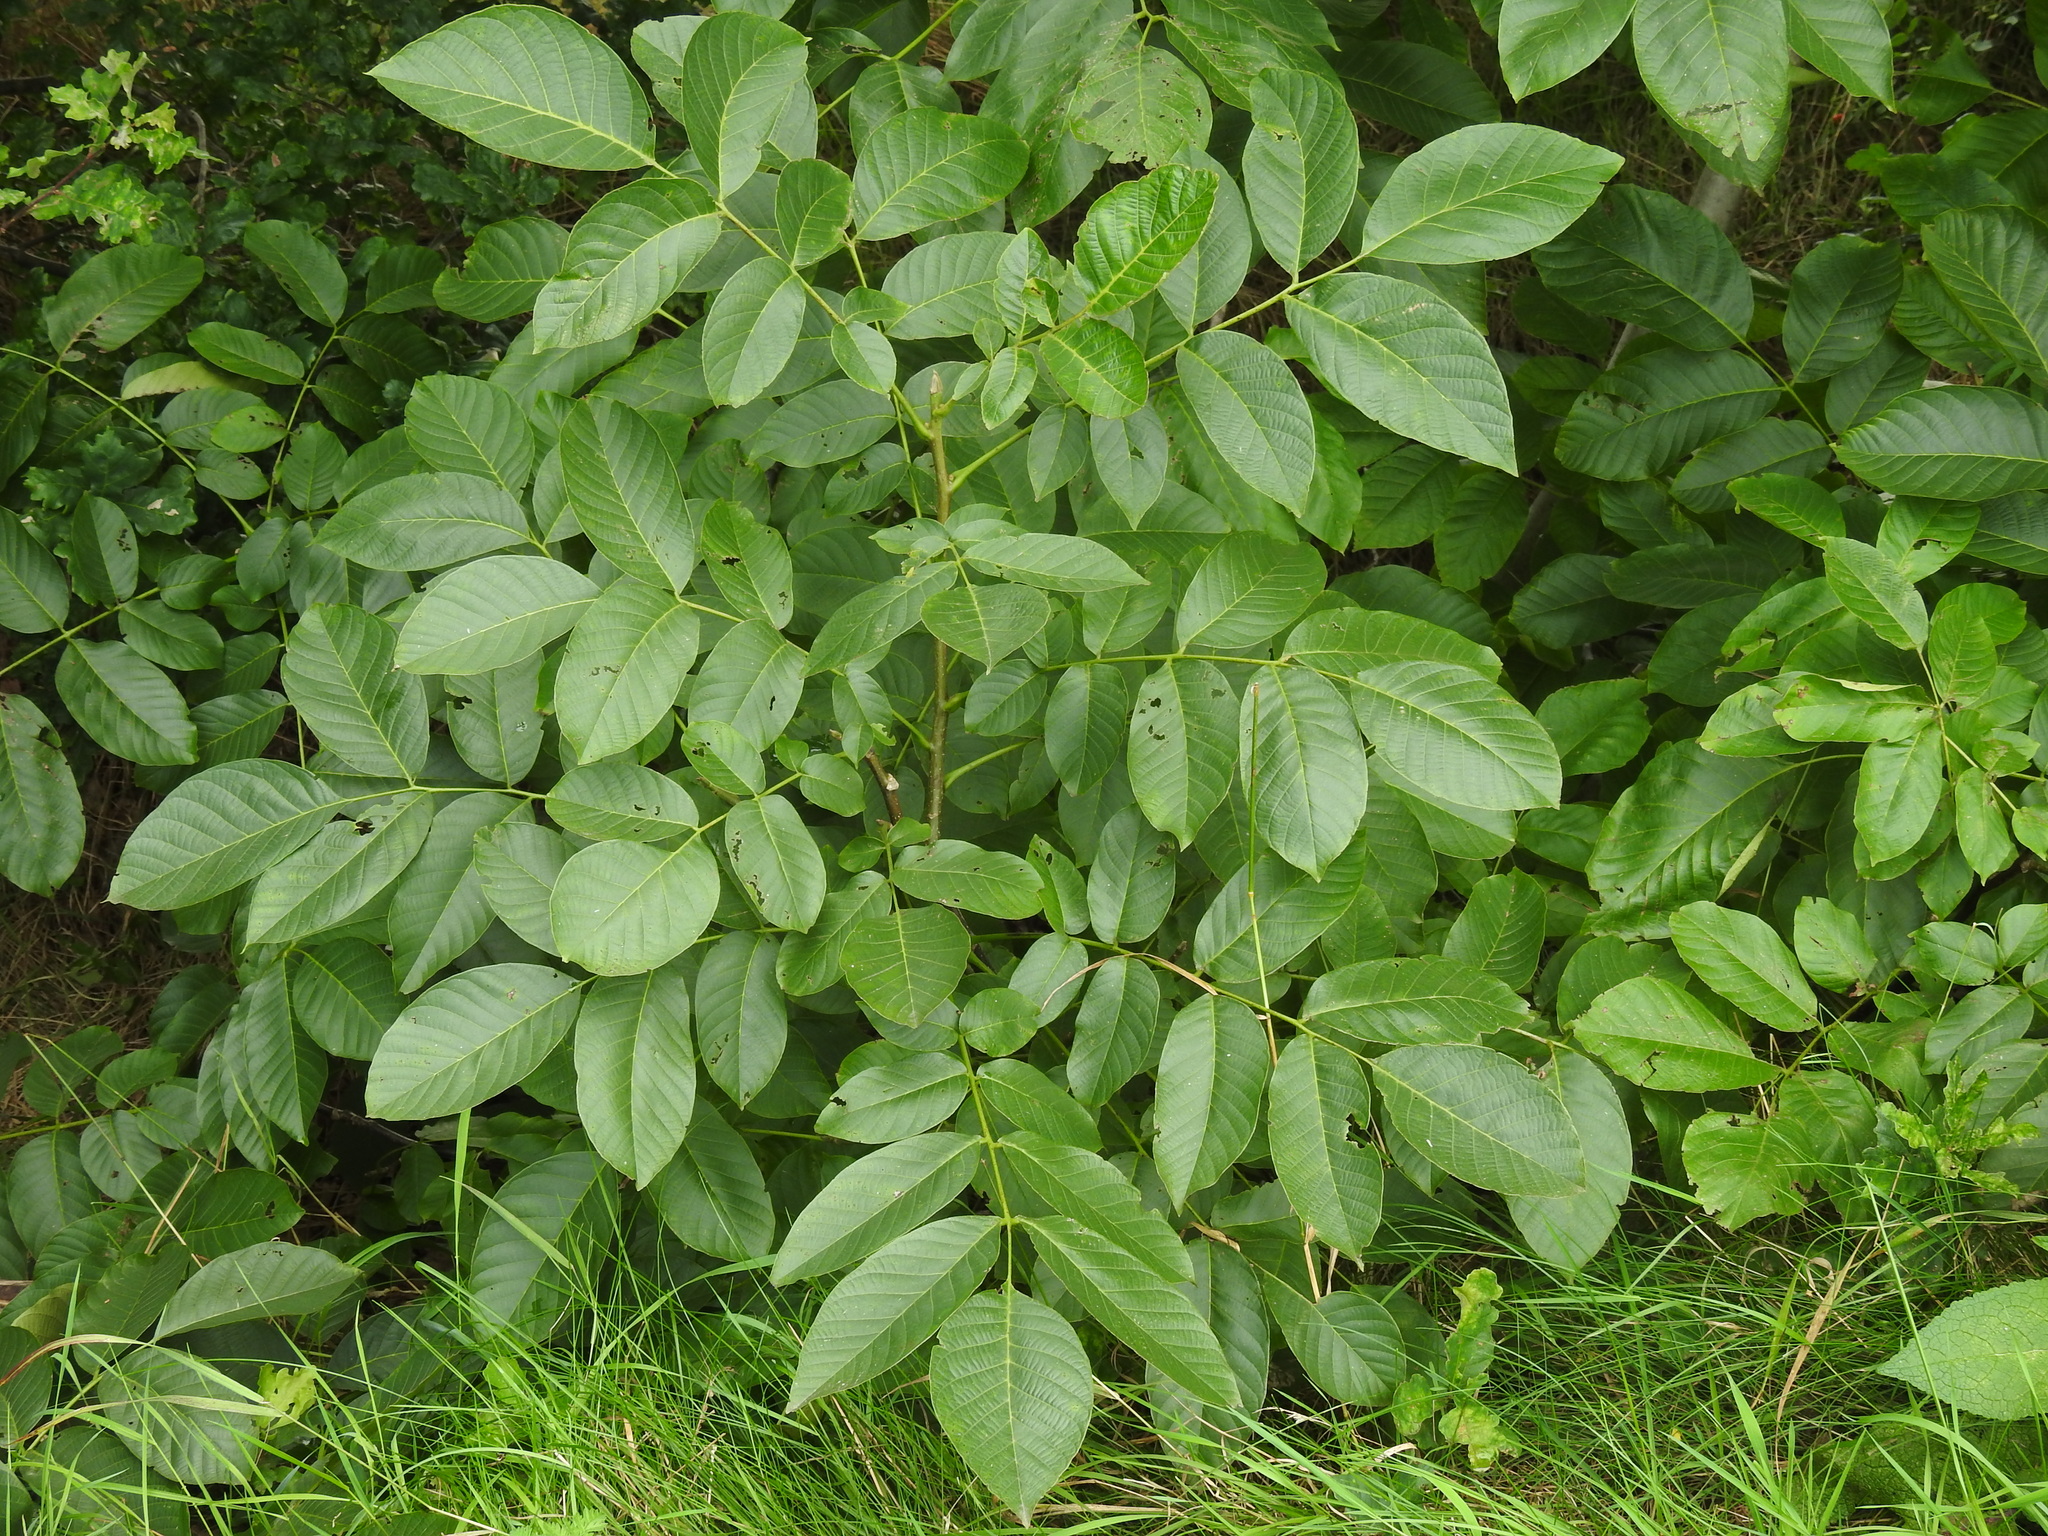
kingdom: Plantae
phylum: Tracheophyta
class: Magnoliopsida
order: Fagales
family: Juglandaceae
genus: Juglans
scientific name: Juglans regia
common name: Walnut
